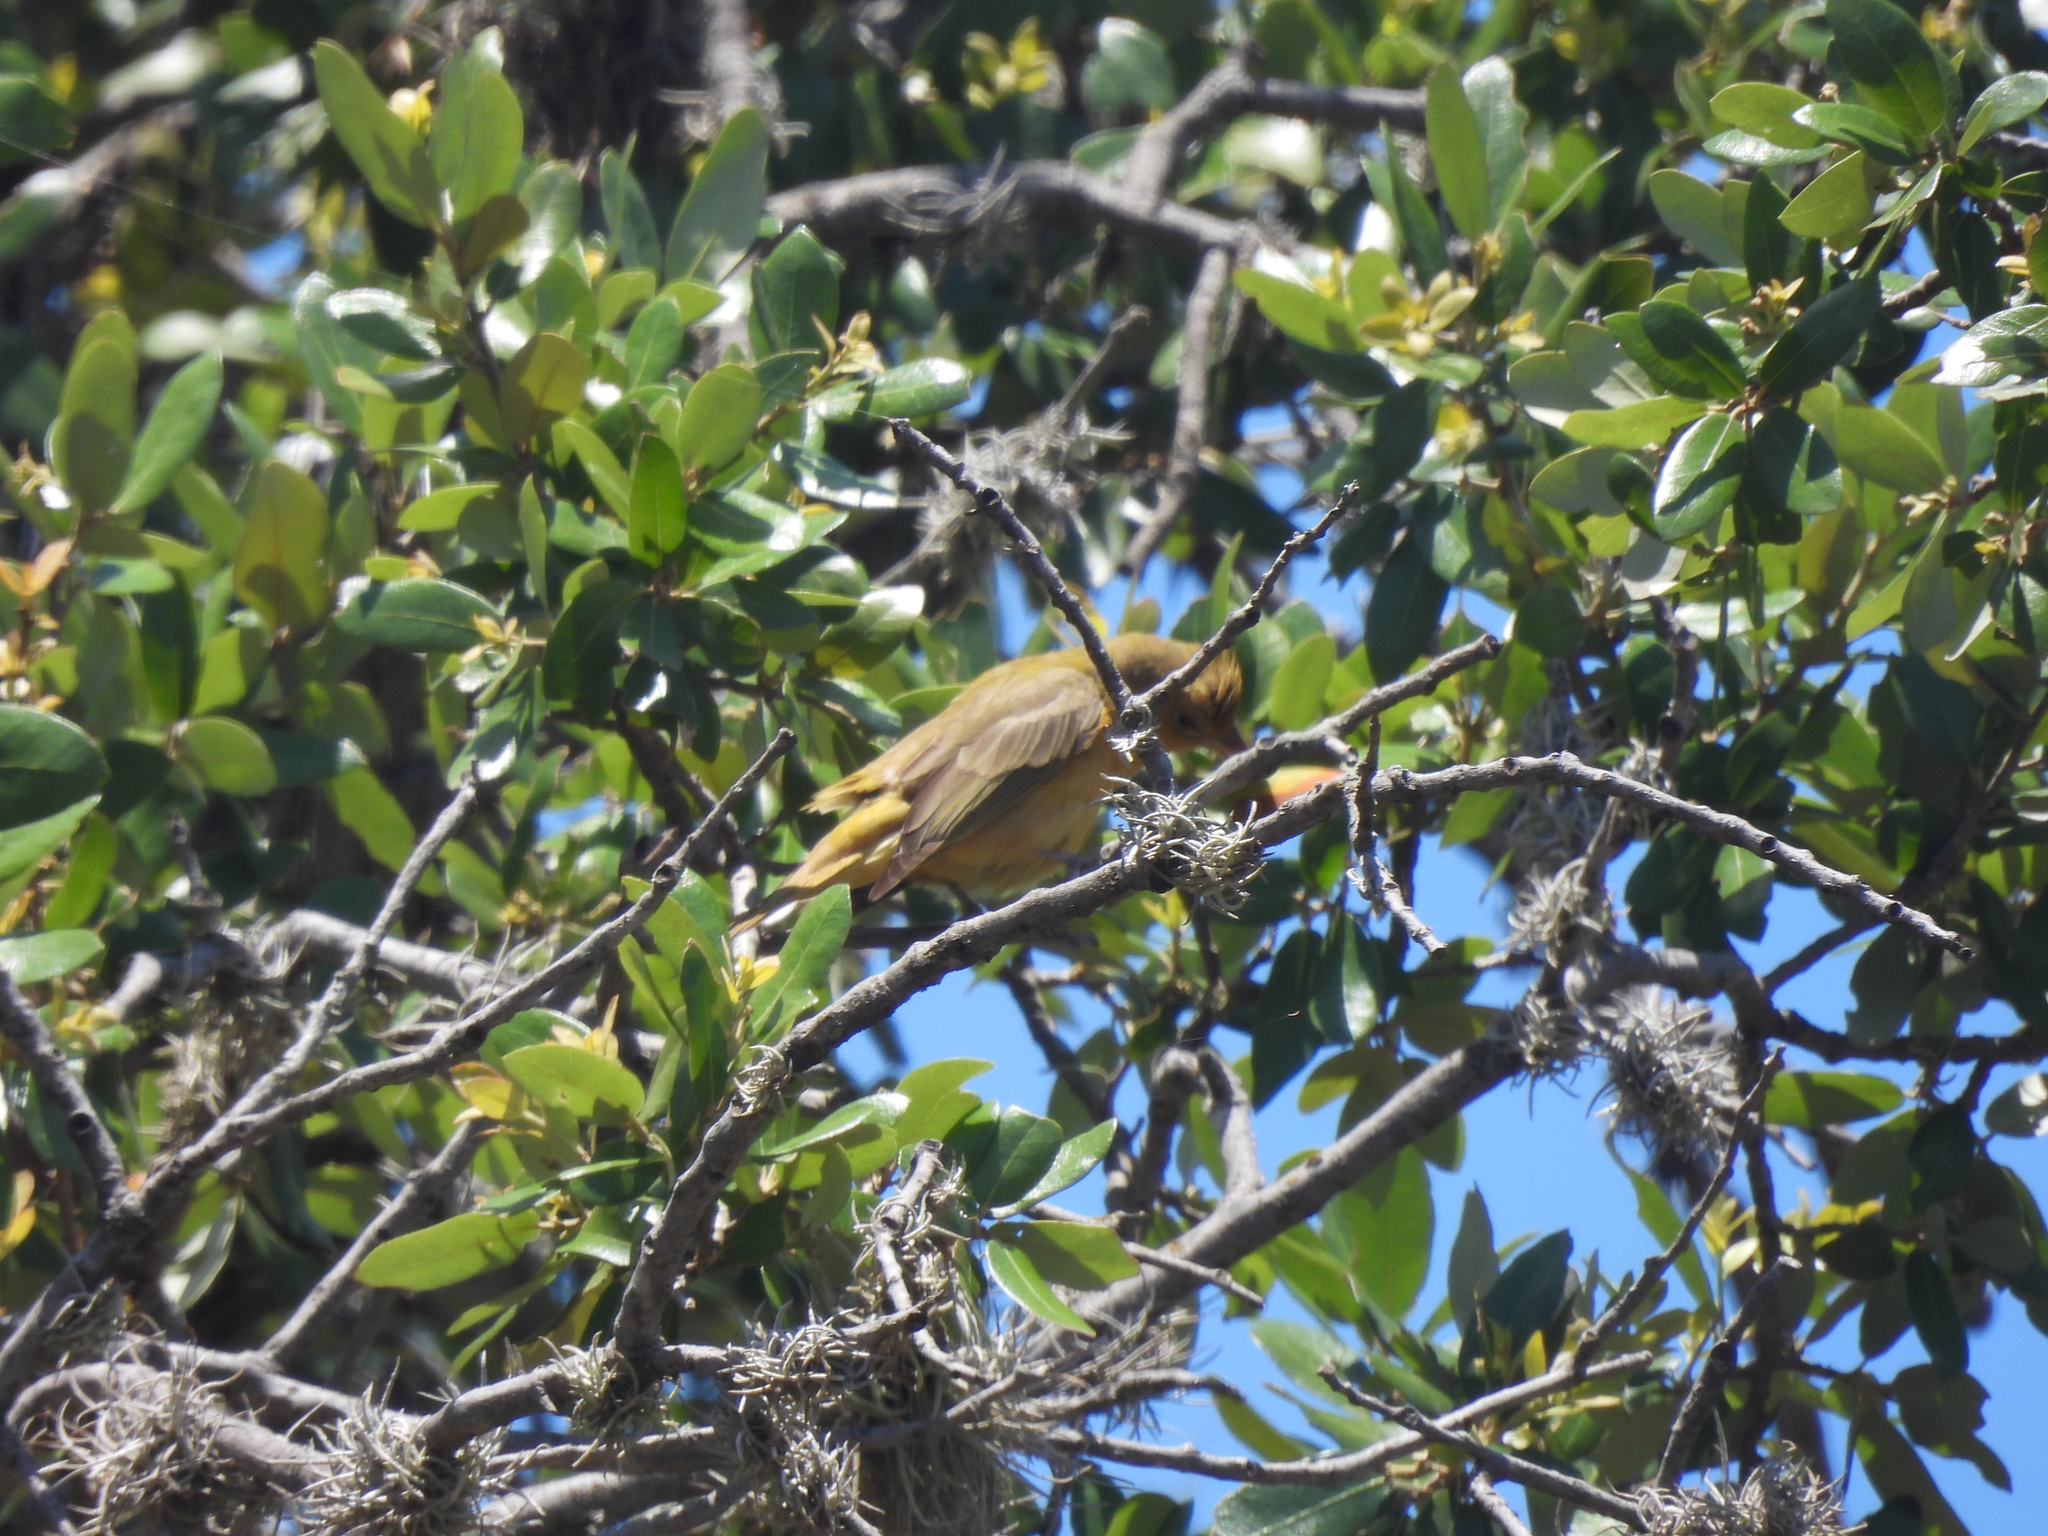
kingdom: Animalia
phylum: Chordata
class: Aves
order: Passeriformes
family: Cardinalidae
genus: Piranga
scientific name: Piranga rubra
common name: Summer tanager
